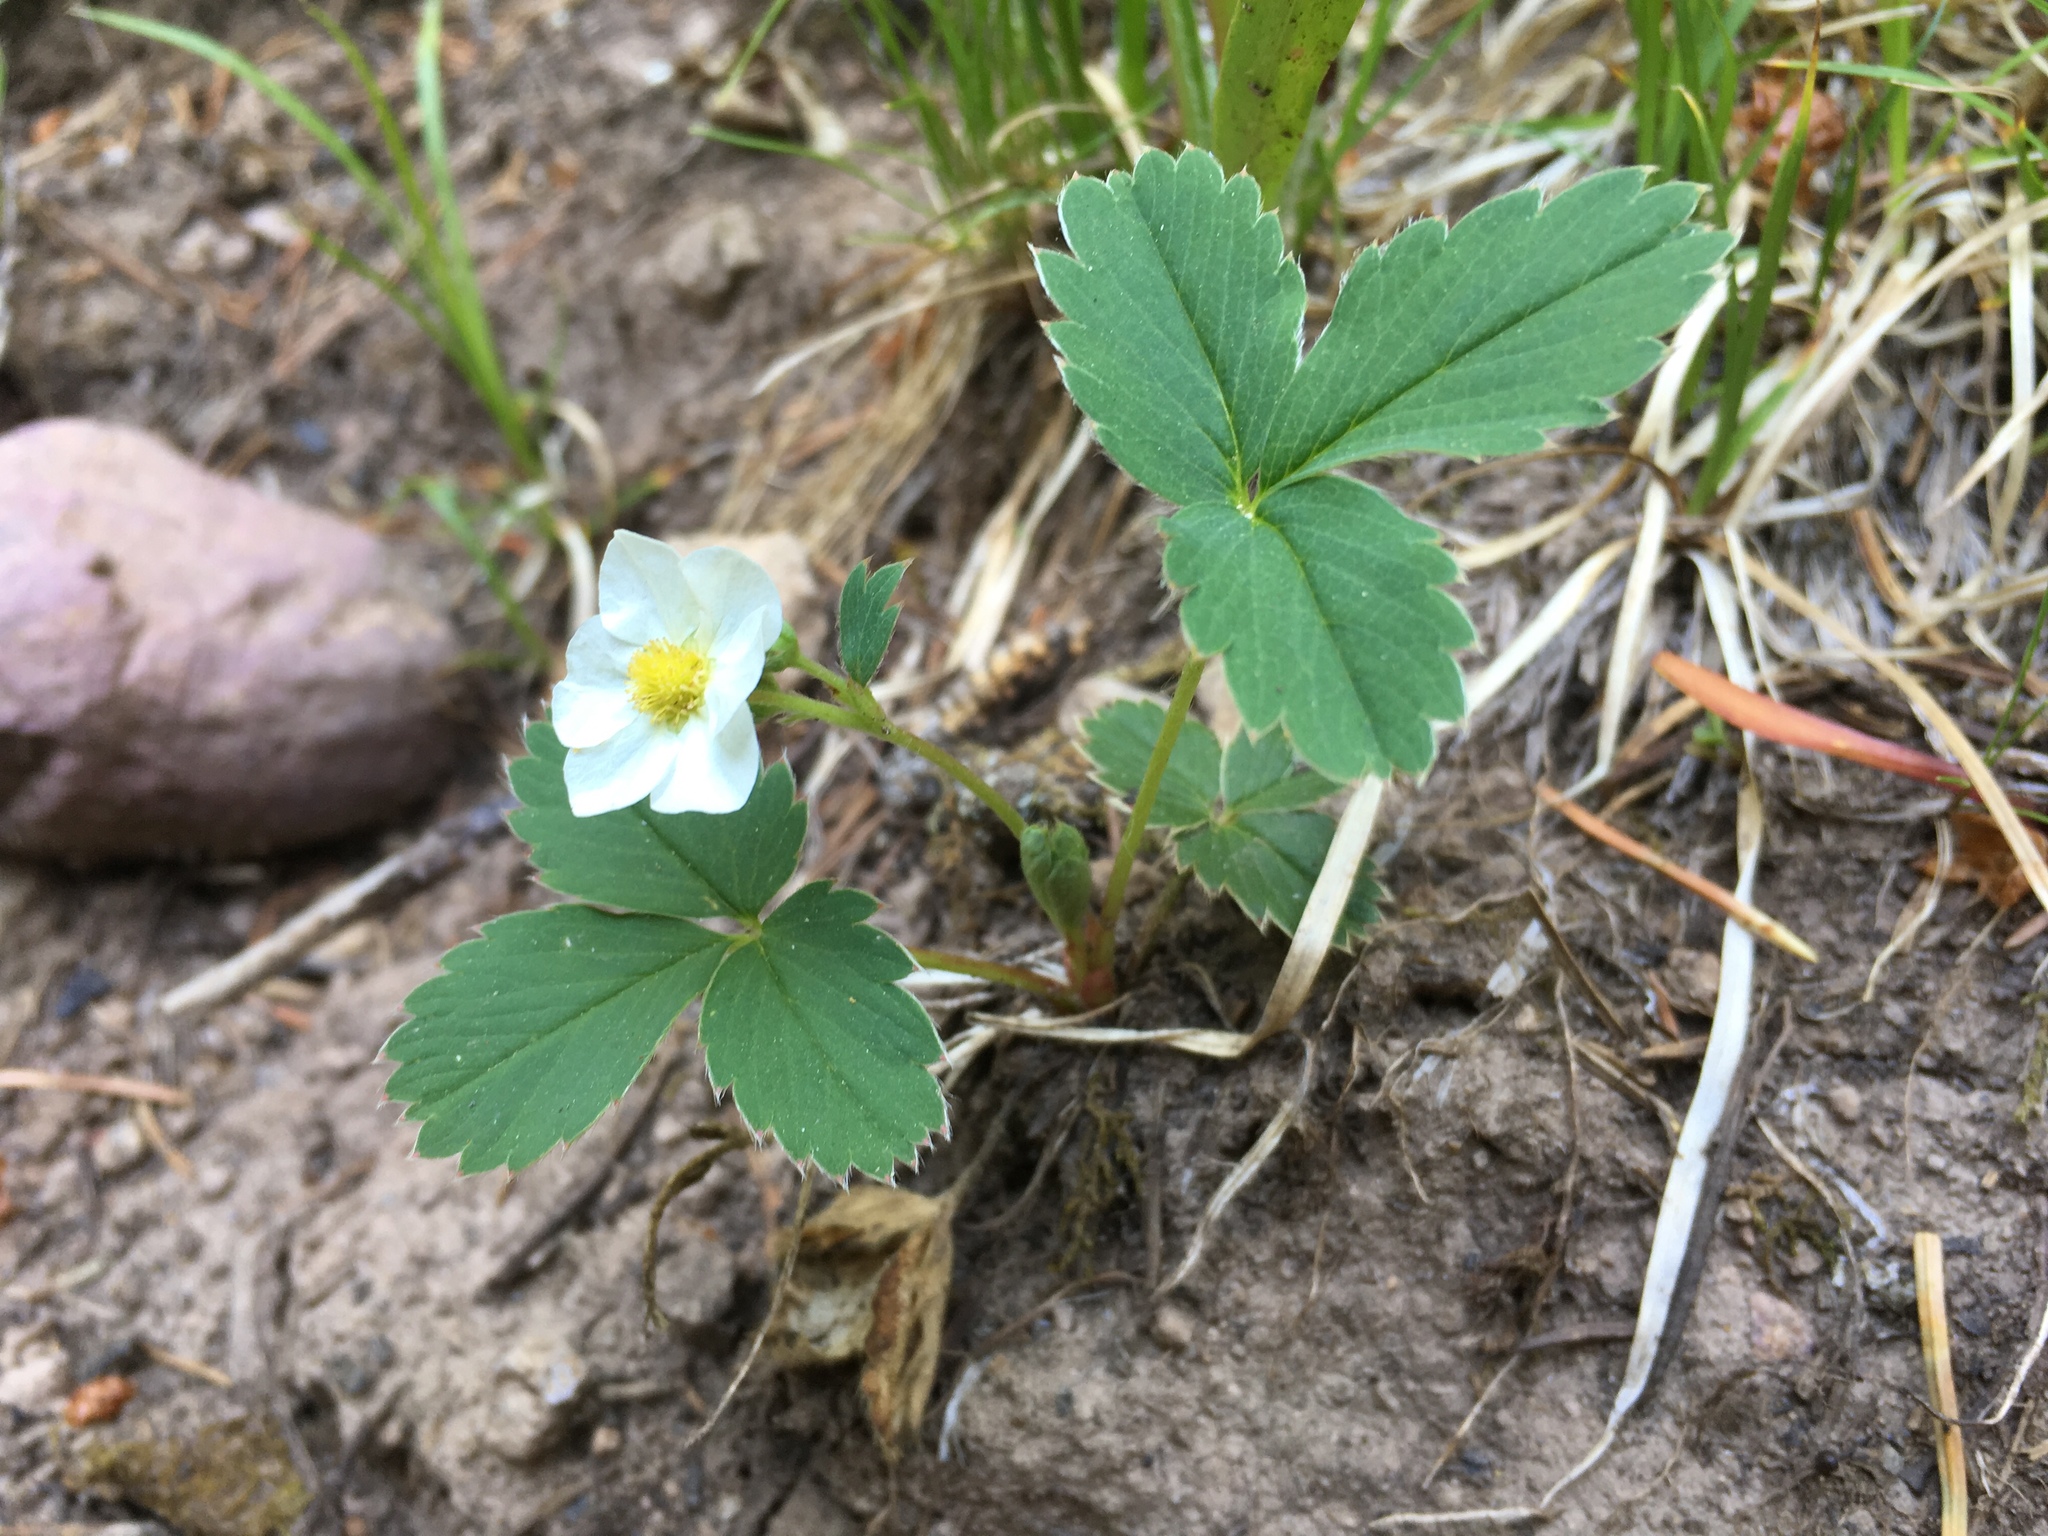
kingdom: Plantae
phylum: Tracheophyta
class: Magnoliopsida
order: Rosales
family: Rosaceae
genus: Fragaria
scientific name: Fragaria virginiana
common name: Thickleaved wild strawberry
